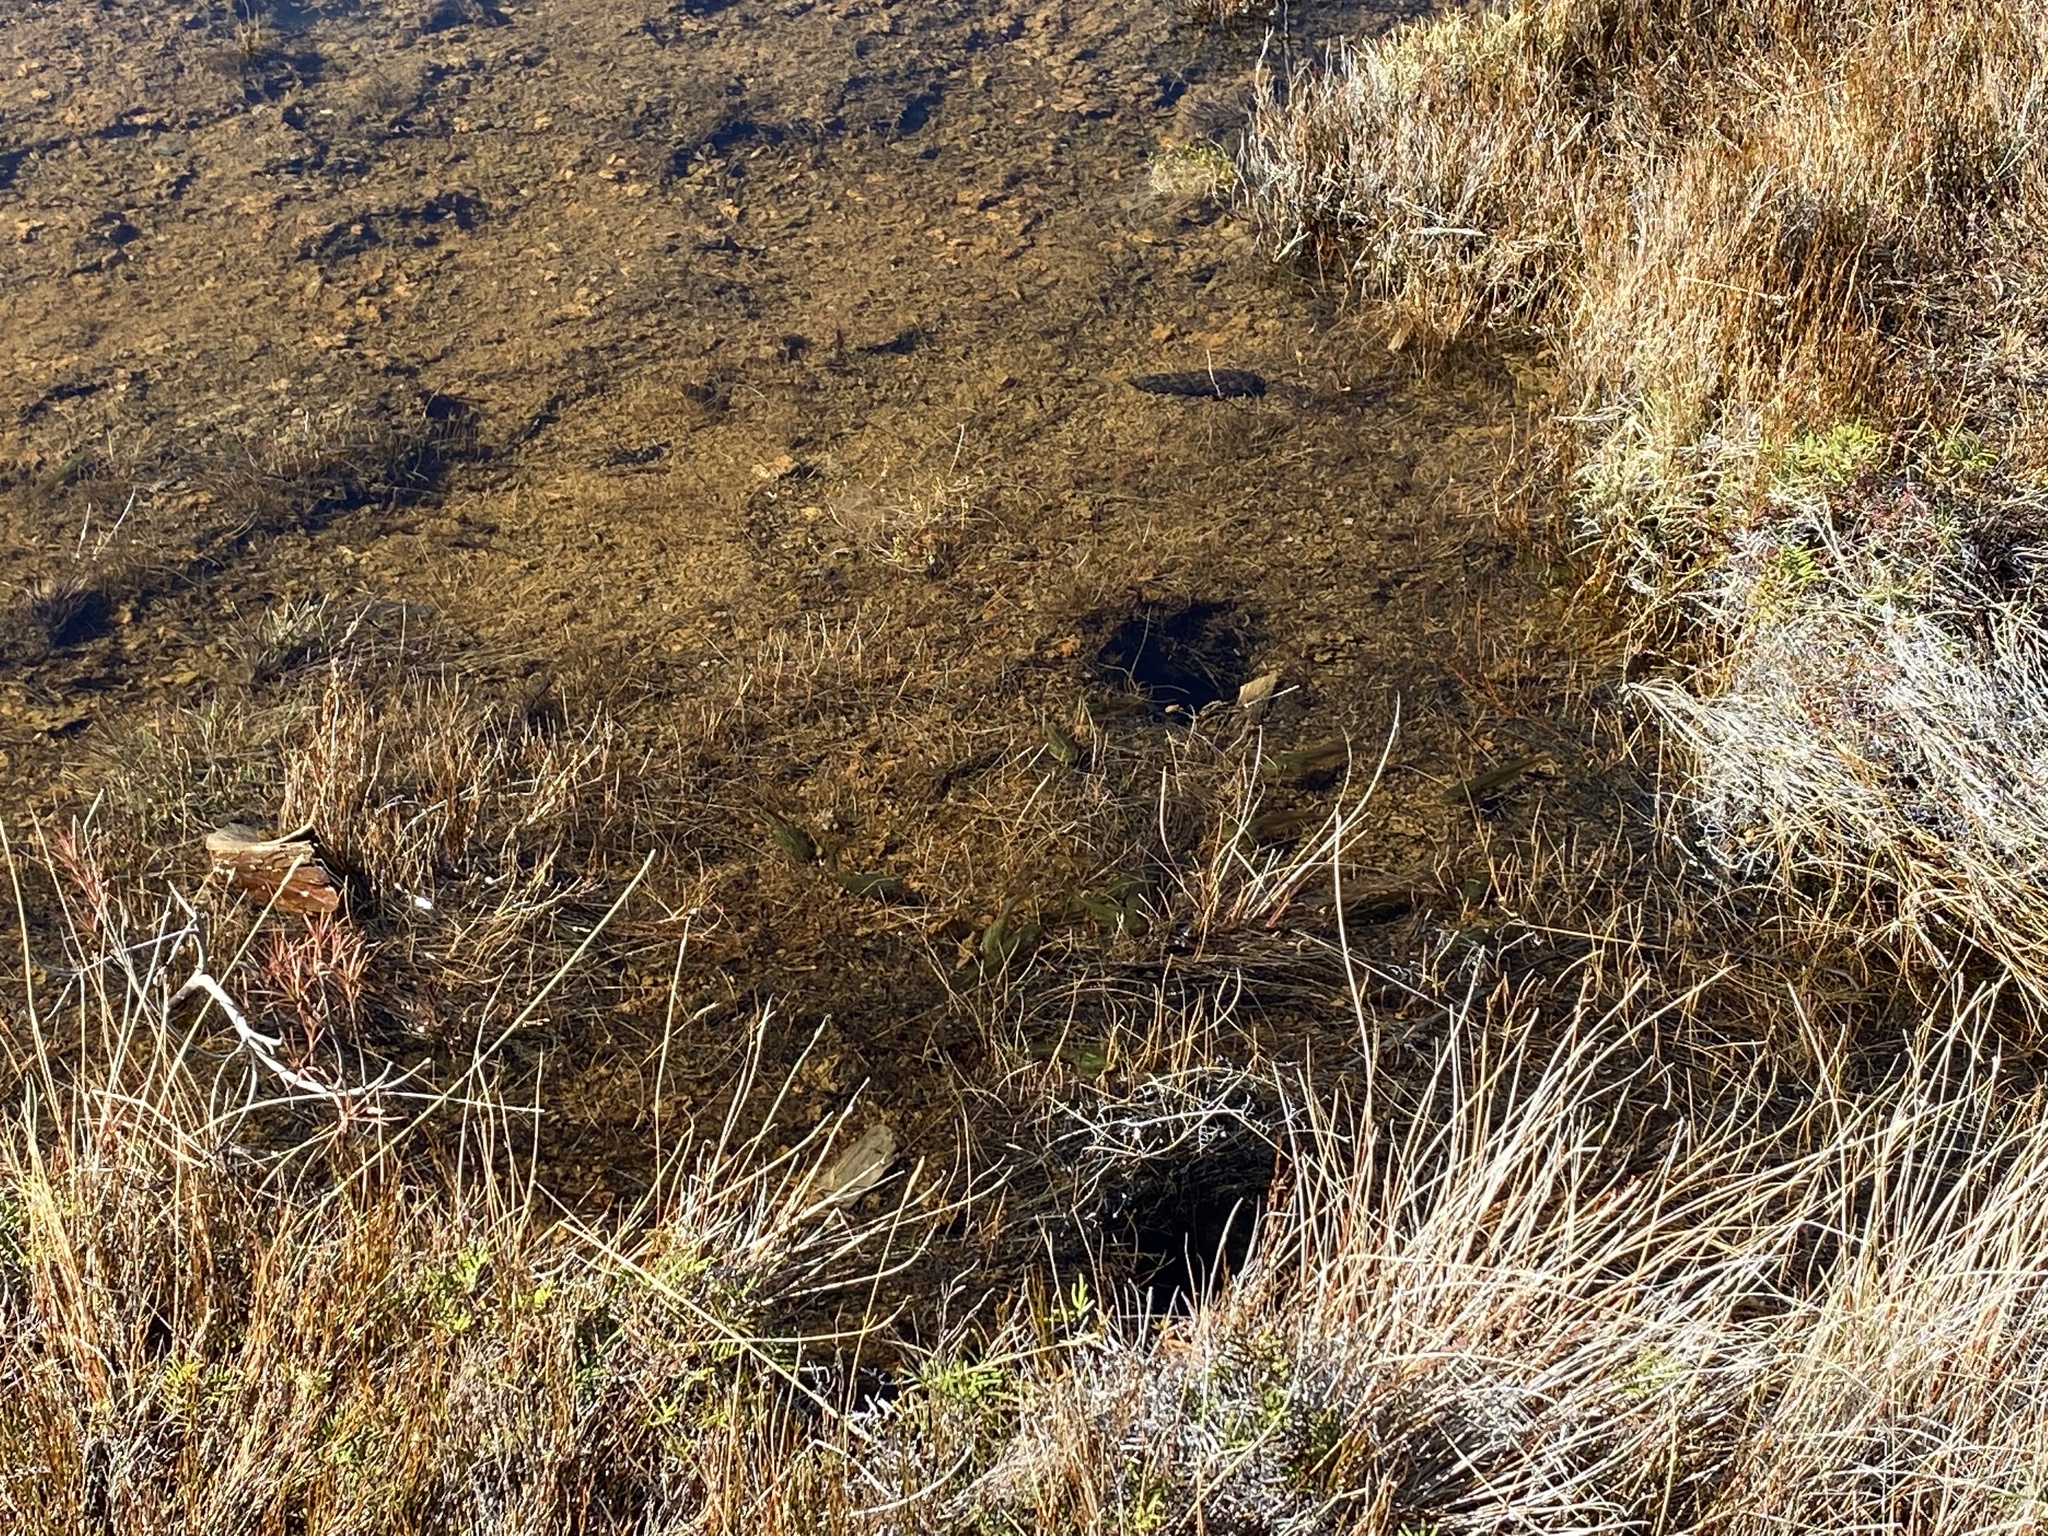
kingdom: Animalia
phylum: Chordata
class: Amphibia
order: Anura
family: Pelodryadidae
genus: Ranoidea
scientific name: Ranoidea raniformis
